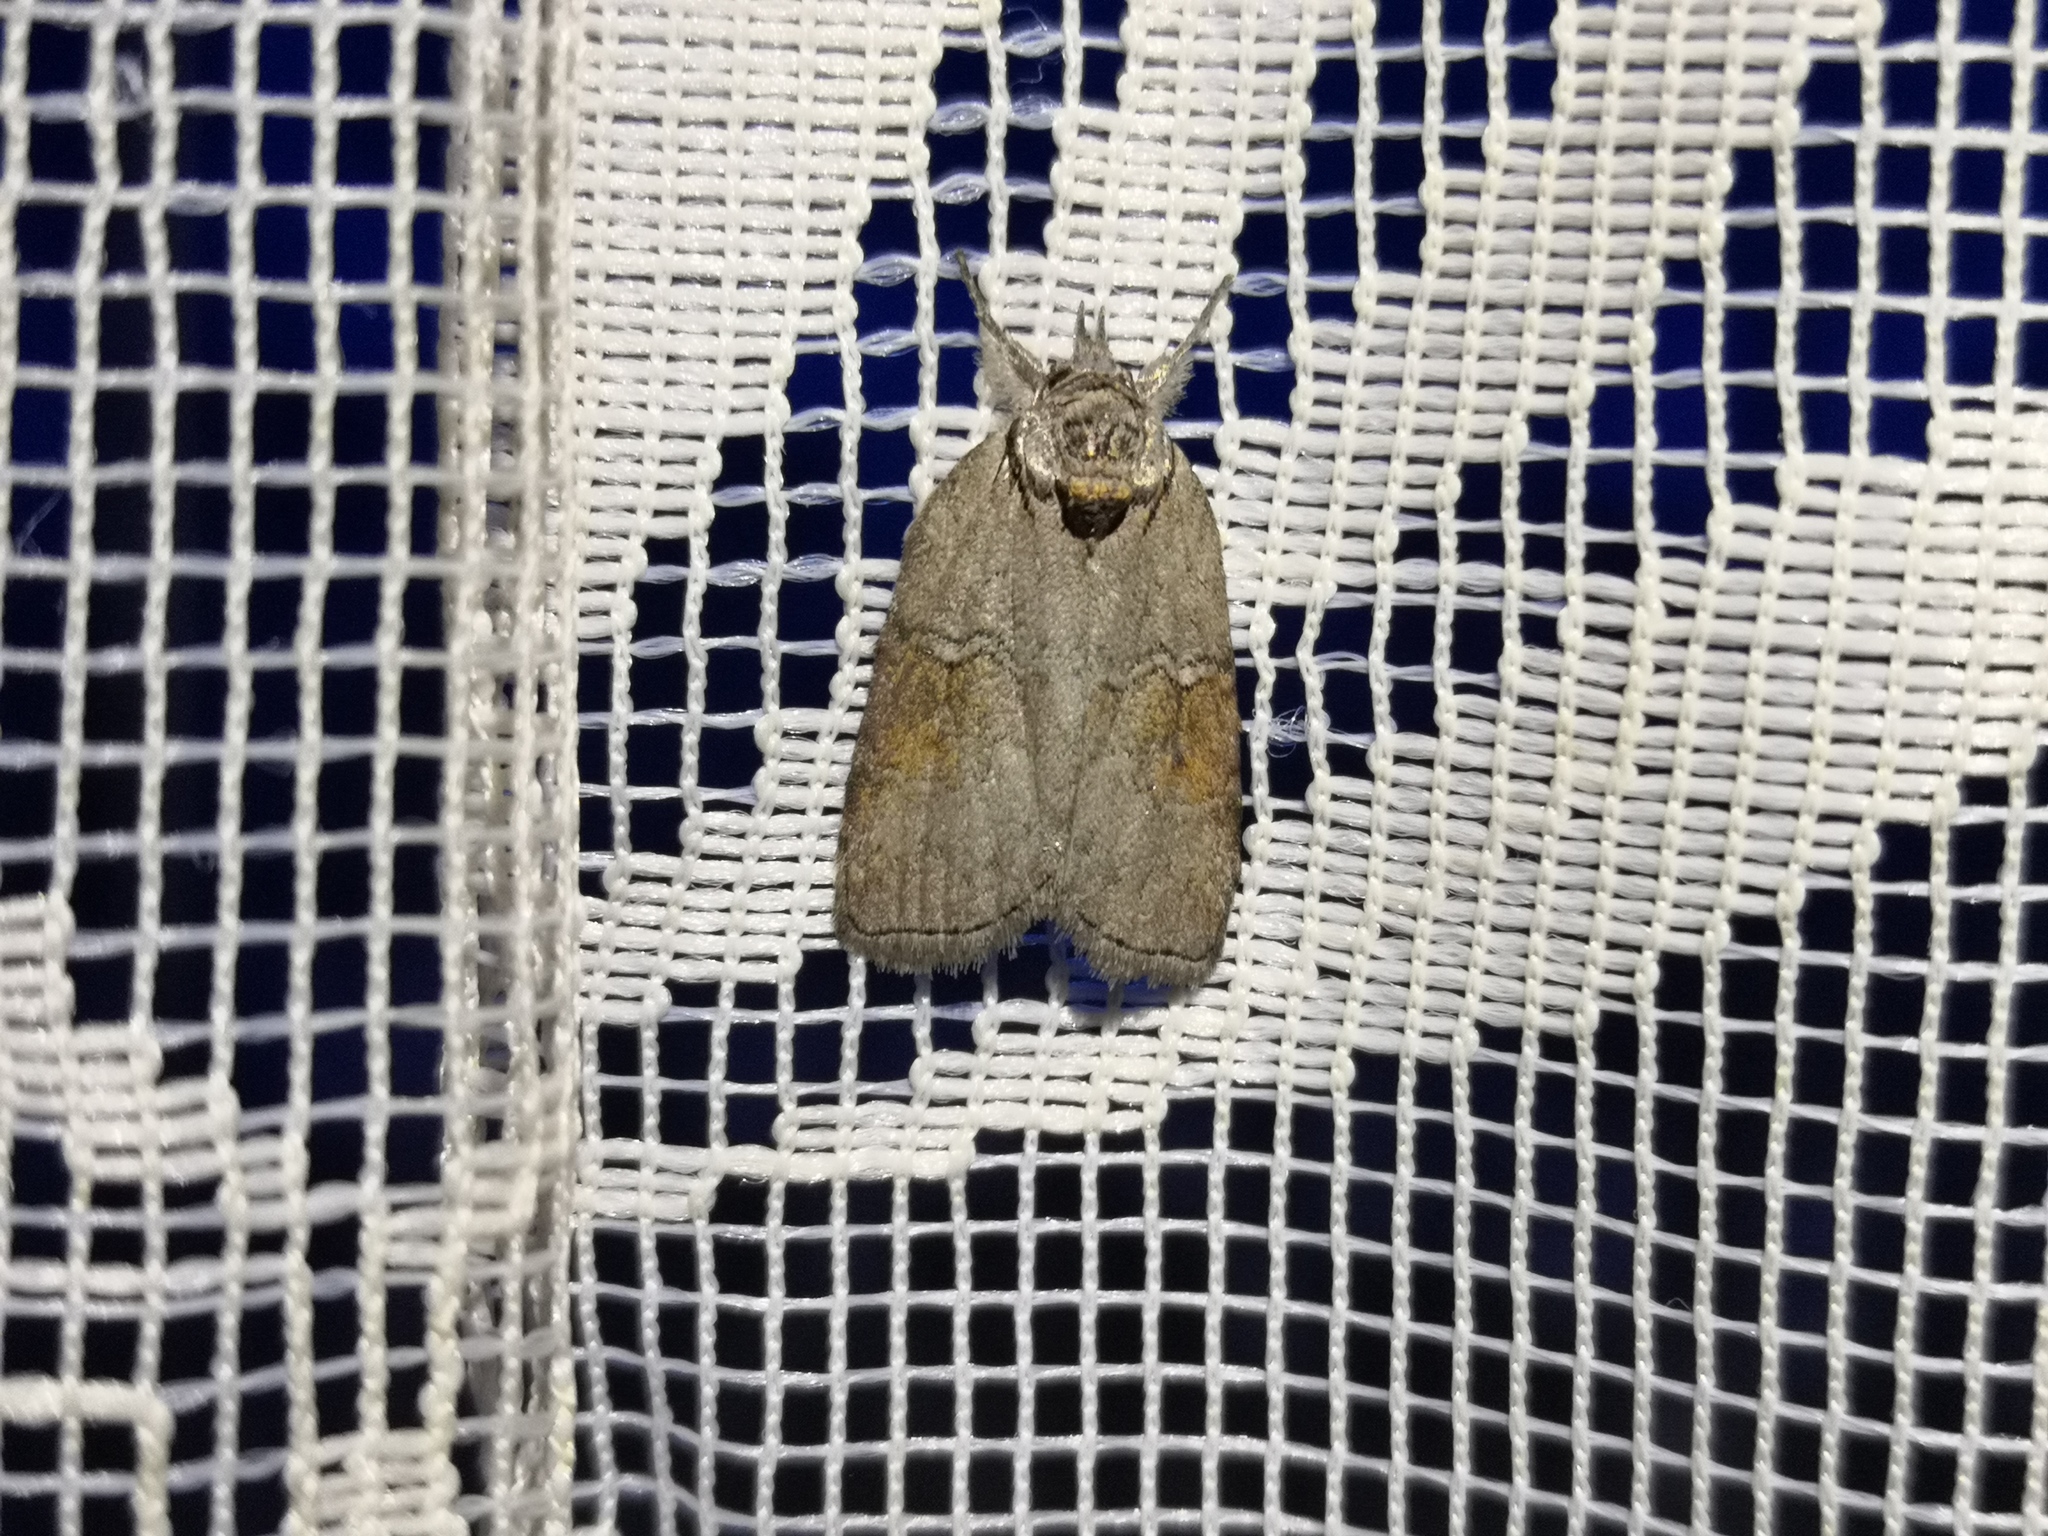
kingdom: Animalia
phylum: Arthropoda
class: Insecta
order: Lepidoptera
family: Nolidae
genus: Nycteola
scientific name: Nycteola asiatica
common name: Eastern nycteoline
